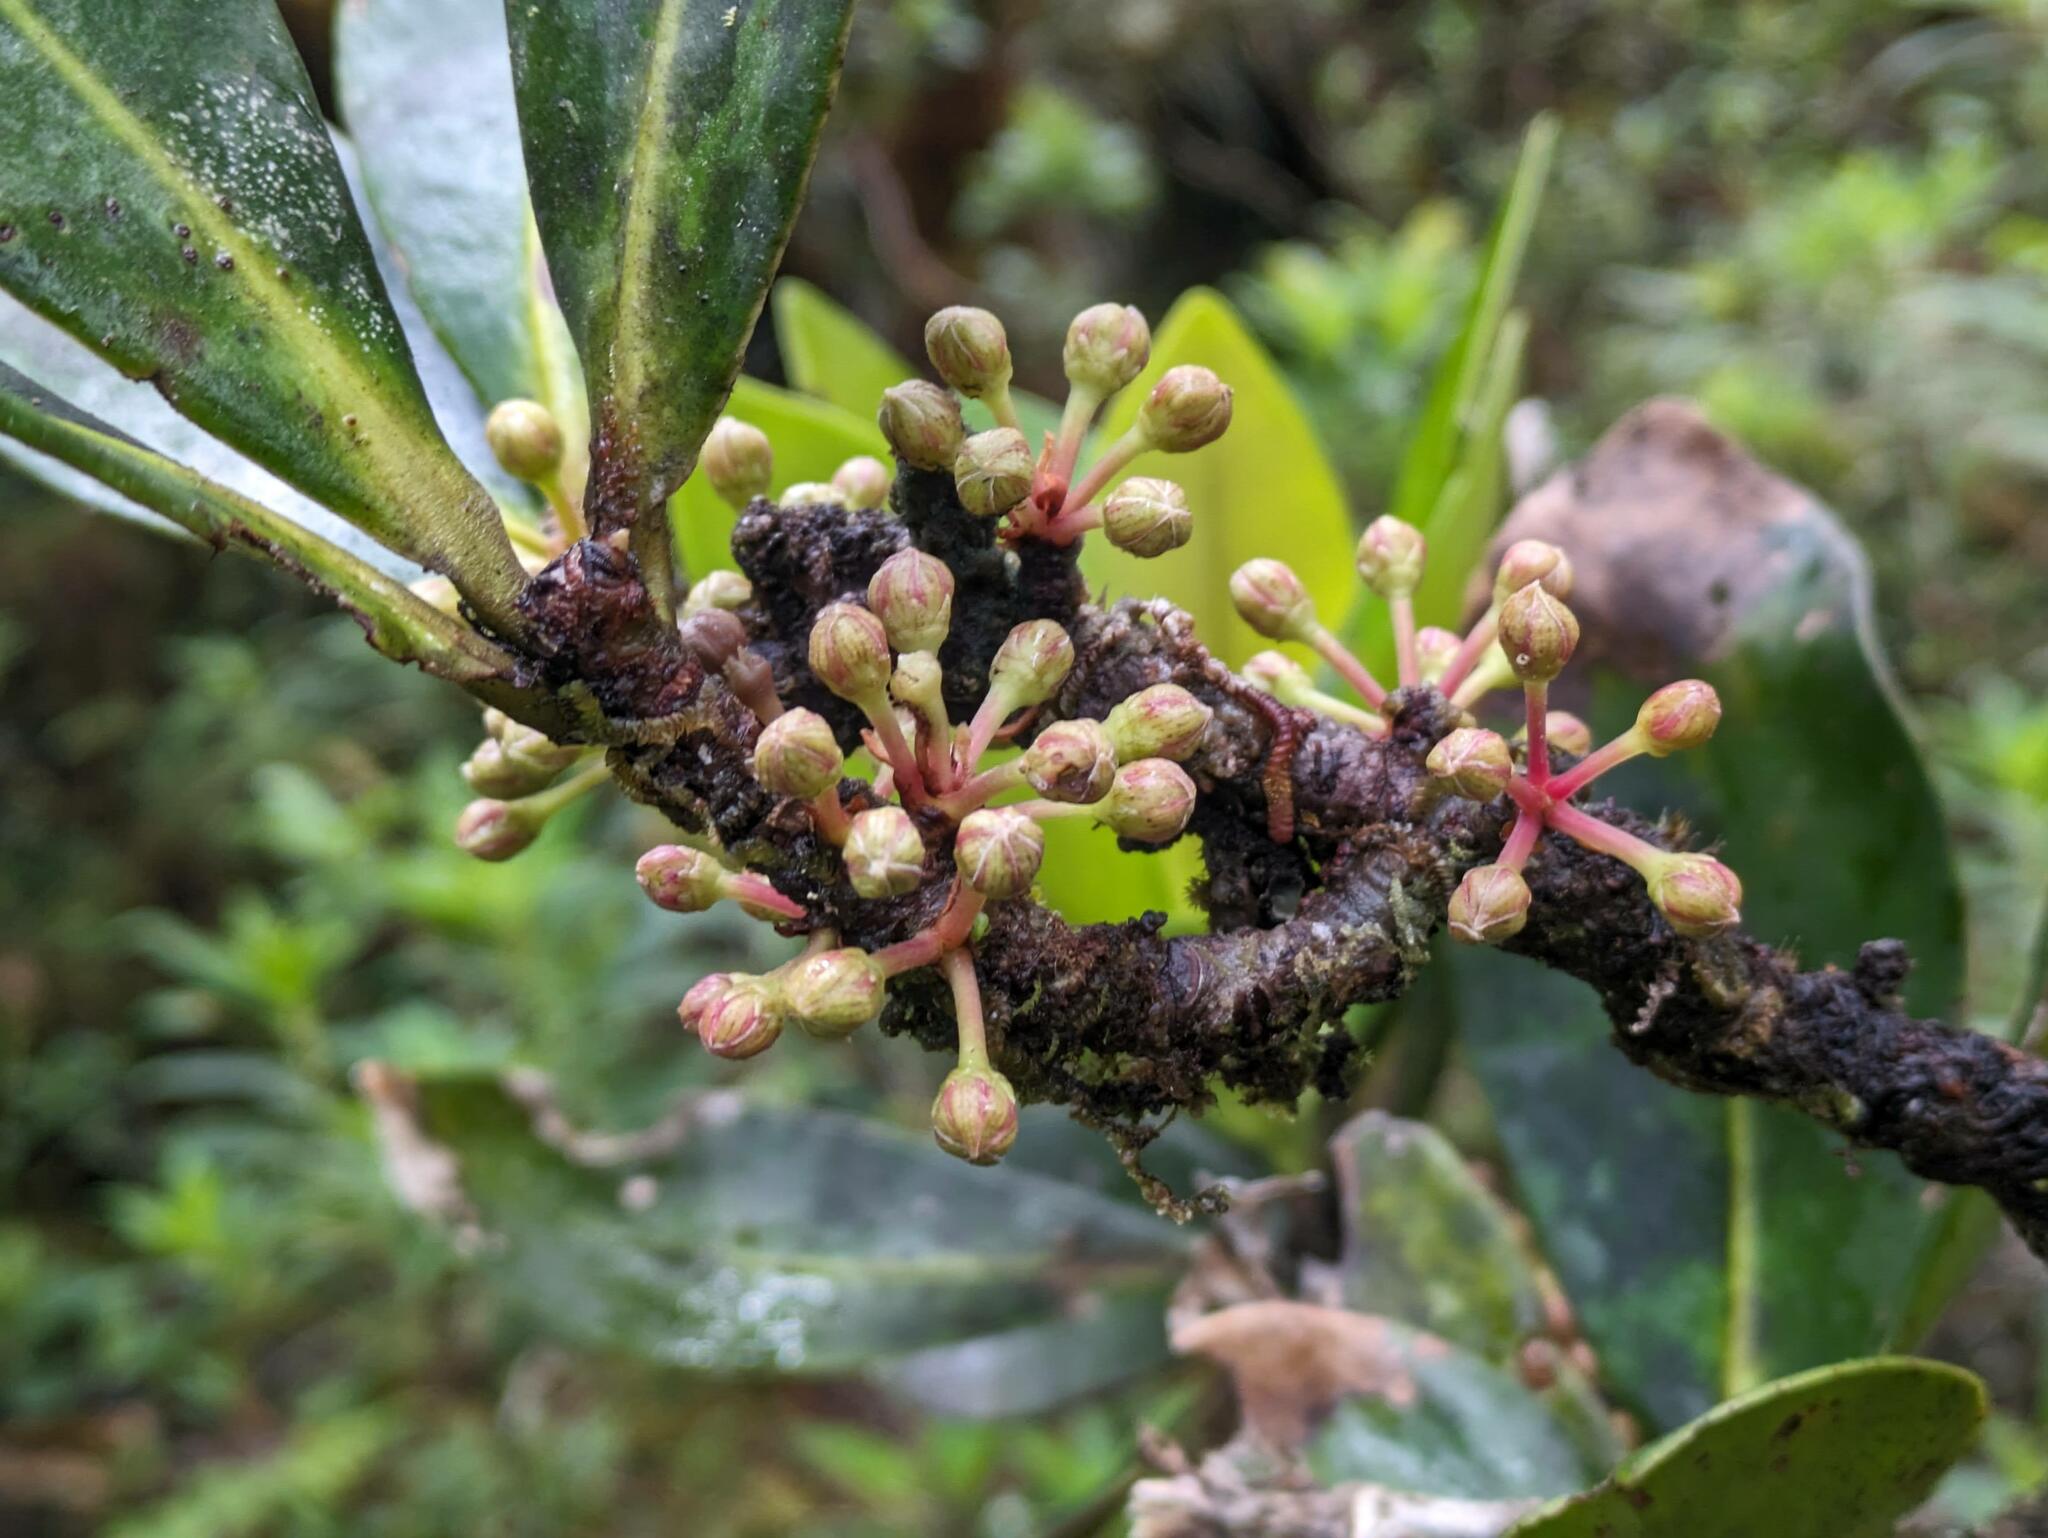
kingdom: Plantae
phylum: Tracheophyta
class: Magnoliopsida
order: Ericales
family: Primulaceae
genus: Myrsine
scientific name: Myrsine lessertiana
